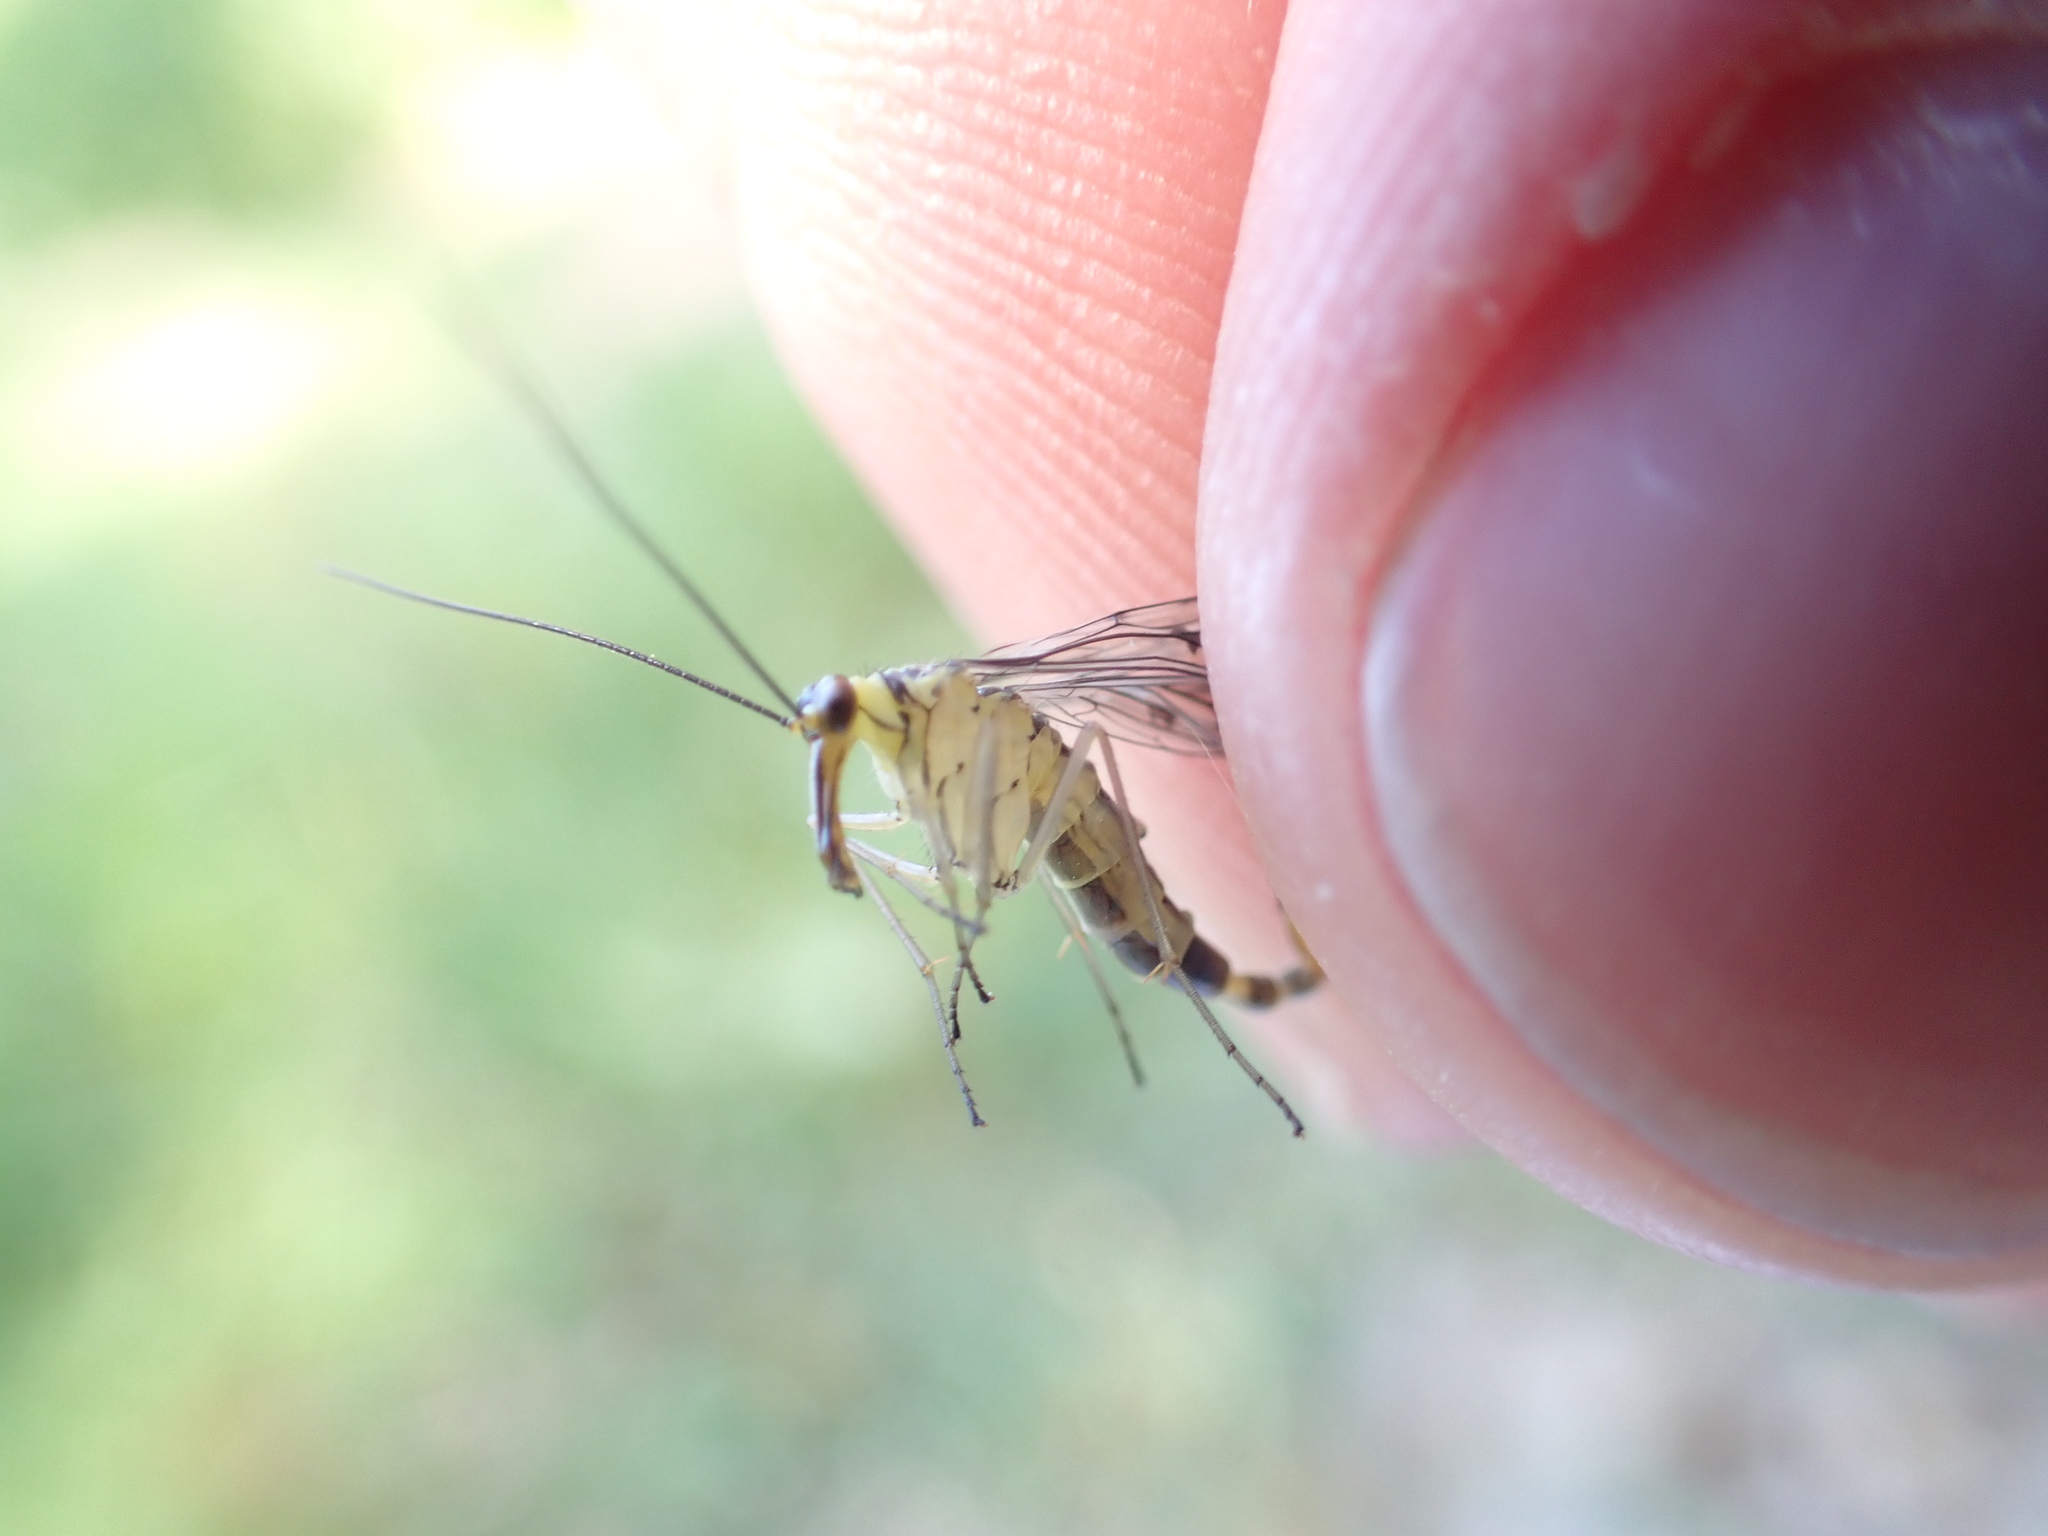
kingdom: Animalia
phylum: Arthropoda
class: Insecta
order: Mecoptera
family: Panorpidae
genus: Panorpa
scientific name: Panorpa germanica
